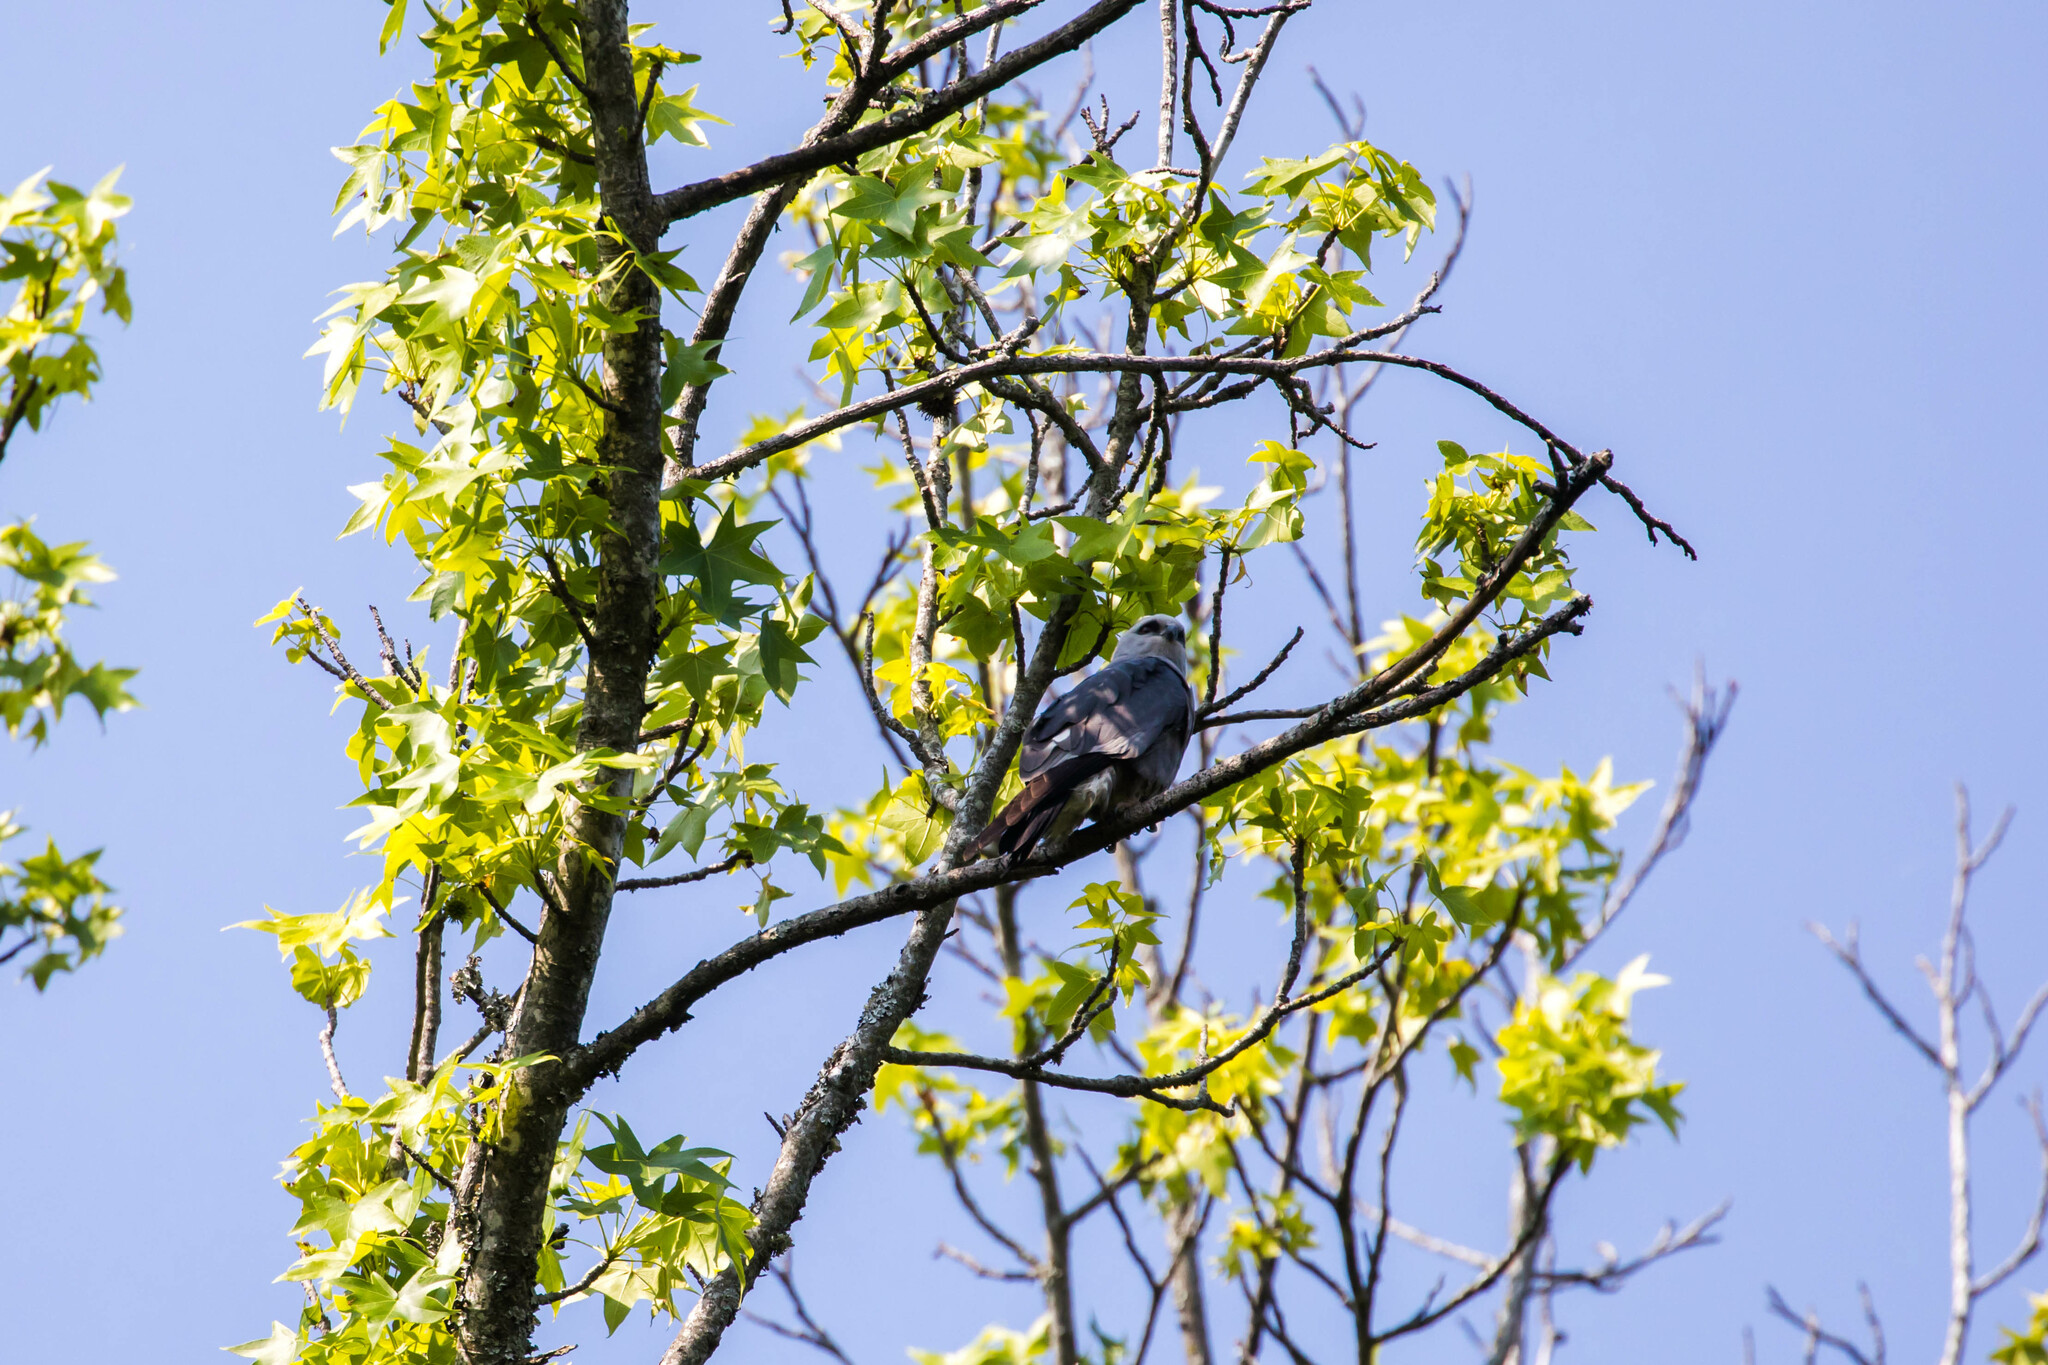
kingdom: Animalia
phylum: Chordata
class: Aves
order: Accipitriformes
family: Accipitridae
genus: Ictinia
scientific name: Ictinia mississippiensis
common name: Mississippi kite
